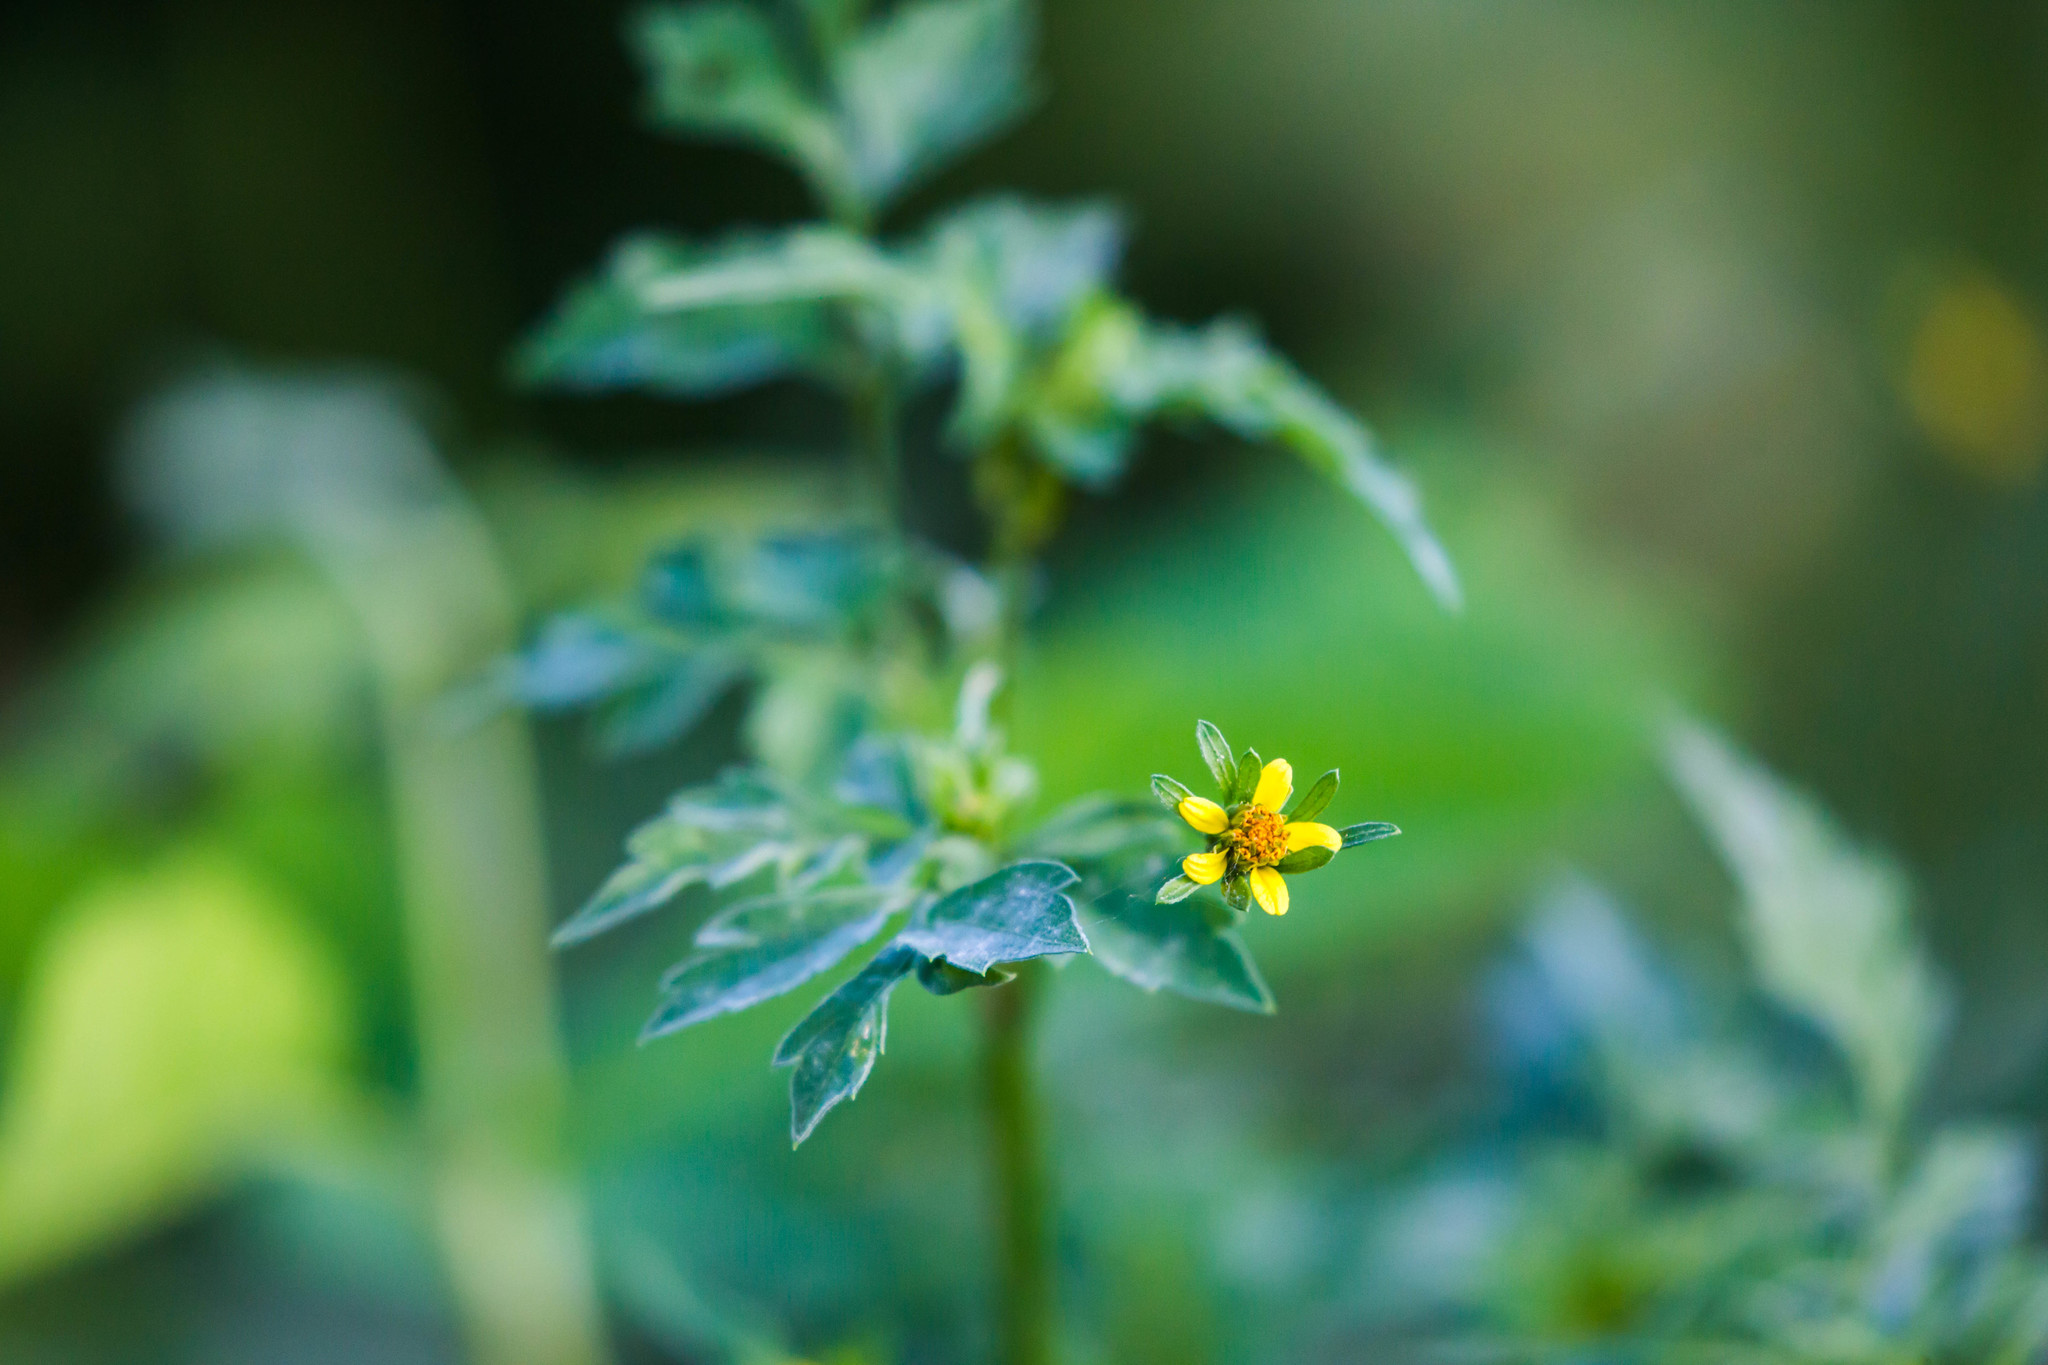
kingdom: Plantae
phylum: Tracheophyta
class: Magnoliopsida
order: Asterales
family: Asteraceae
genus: Bidens
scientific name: Bidens bipinnata
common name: Spanish-needles
